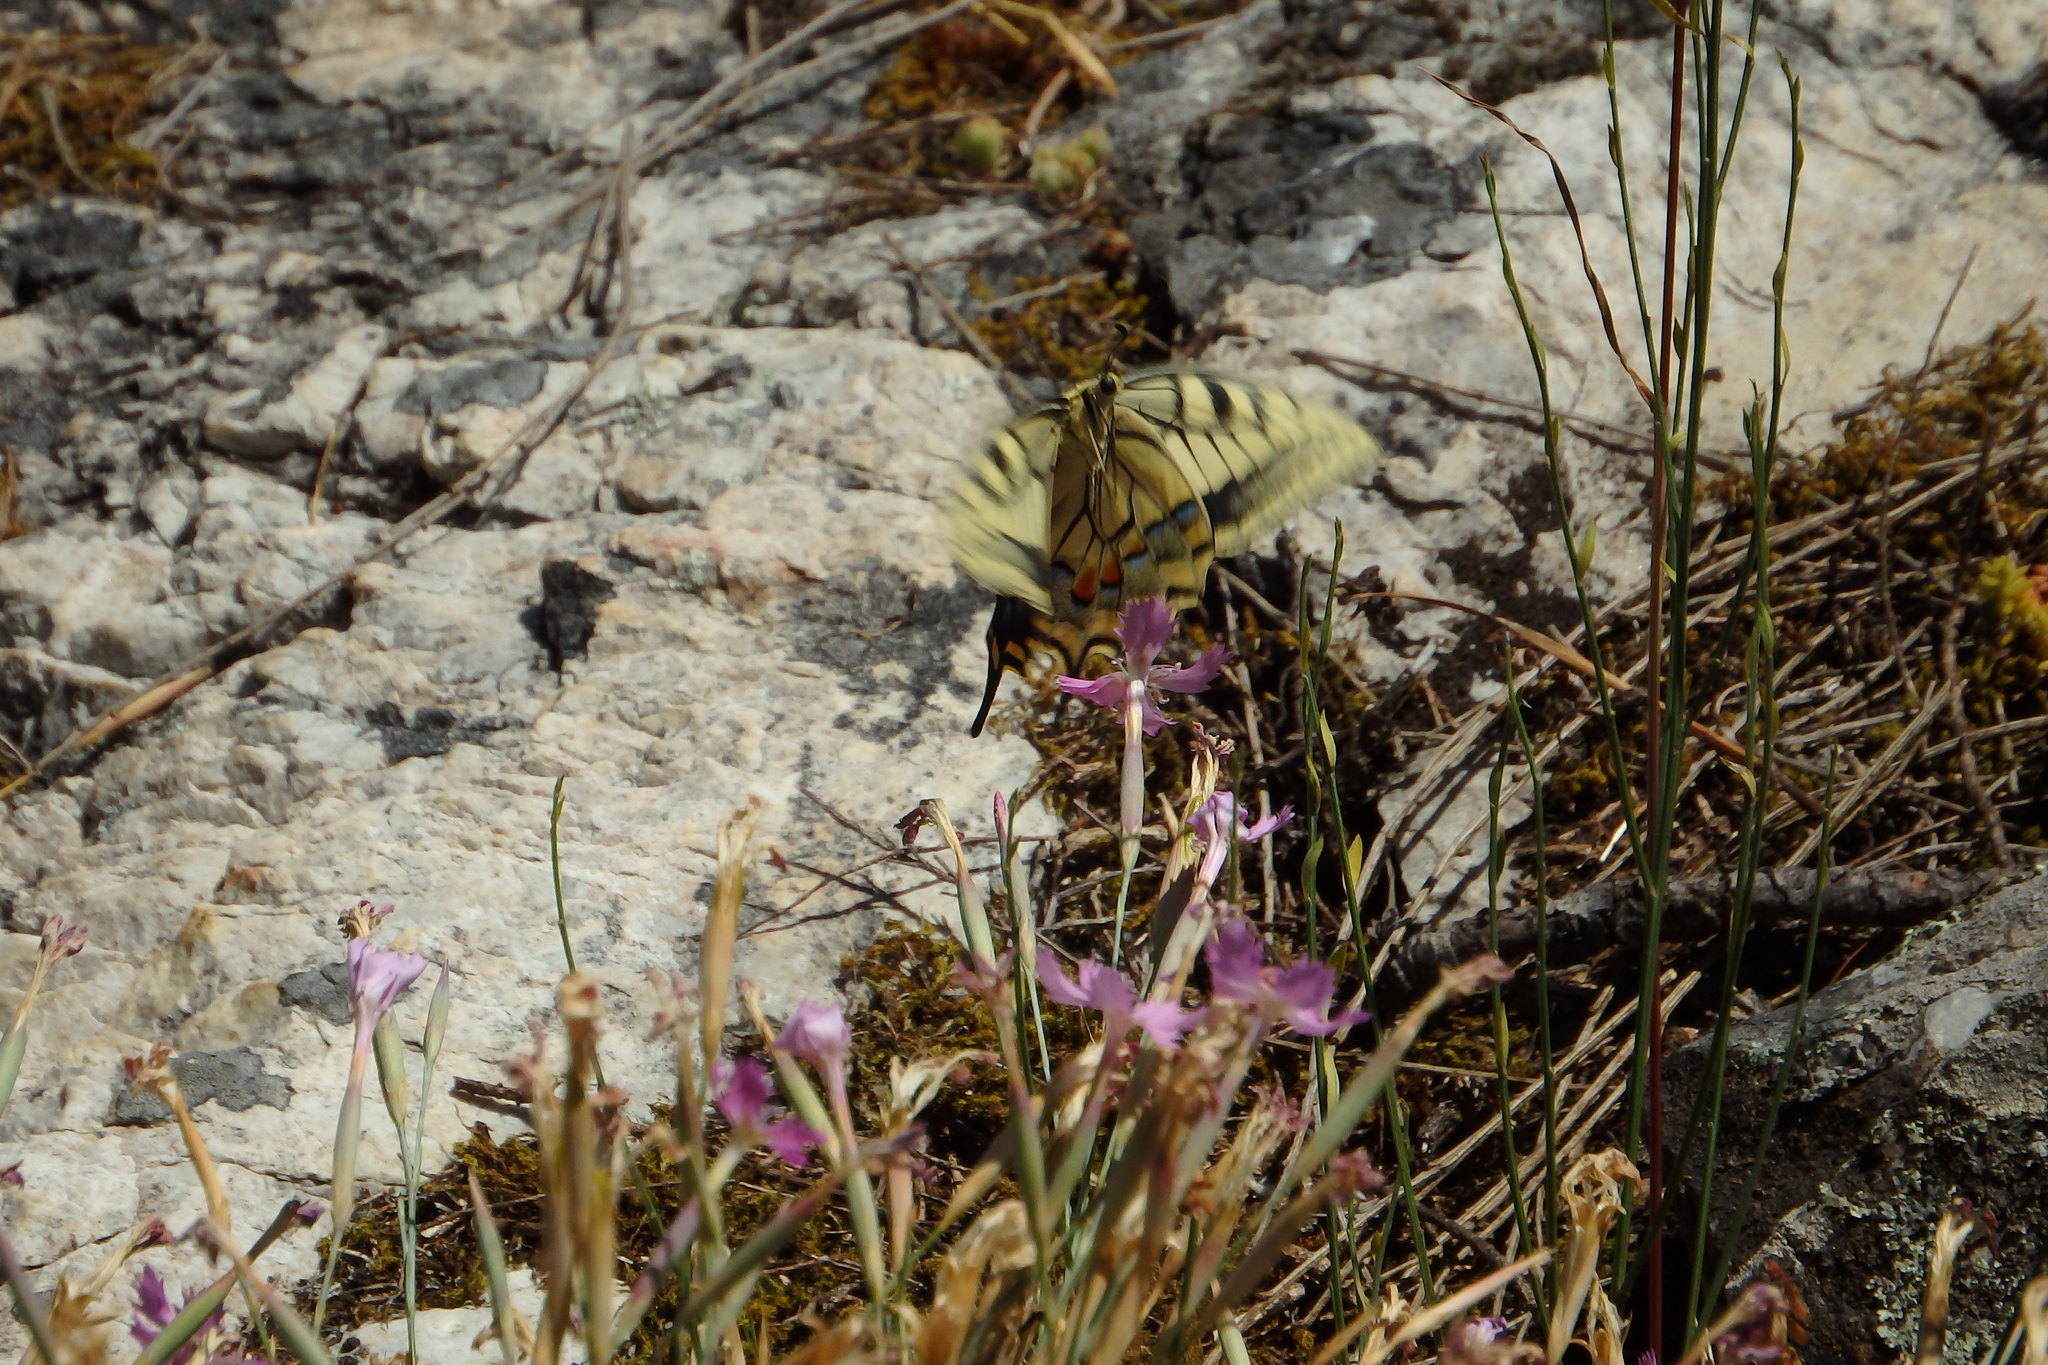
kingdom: Animalia
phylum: Arthropoda
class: Insecta
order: Lepidoptera
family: Papilionidae
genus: Papilio
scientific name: Papilio machaon
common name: Swallowtail
